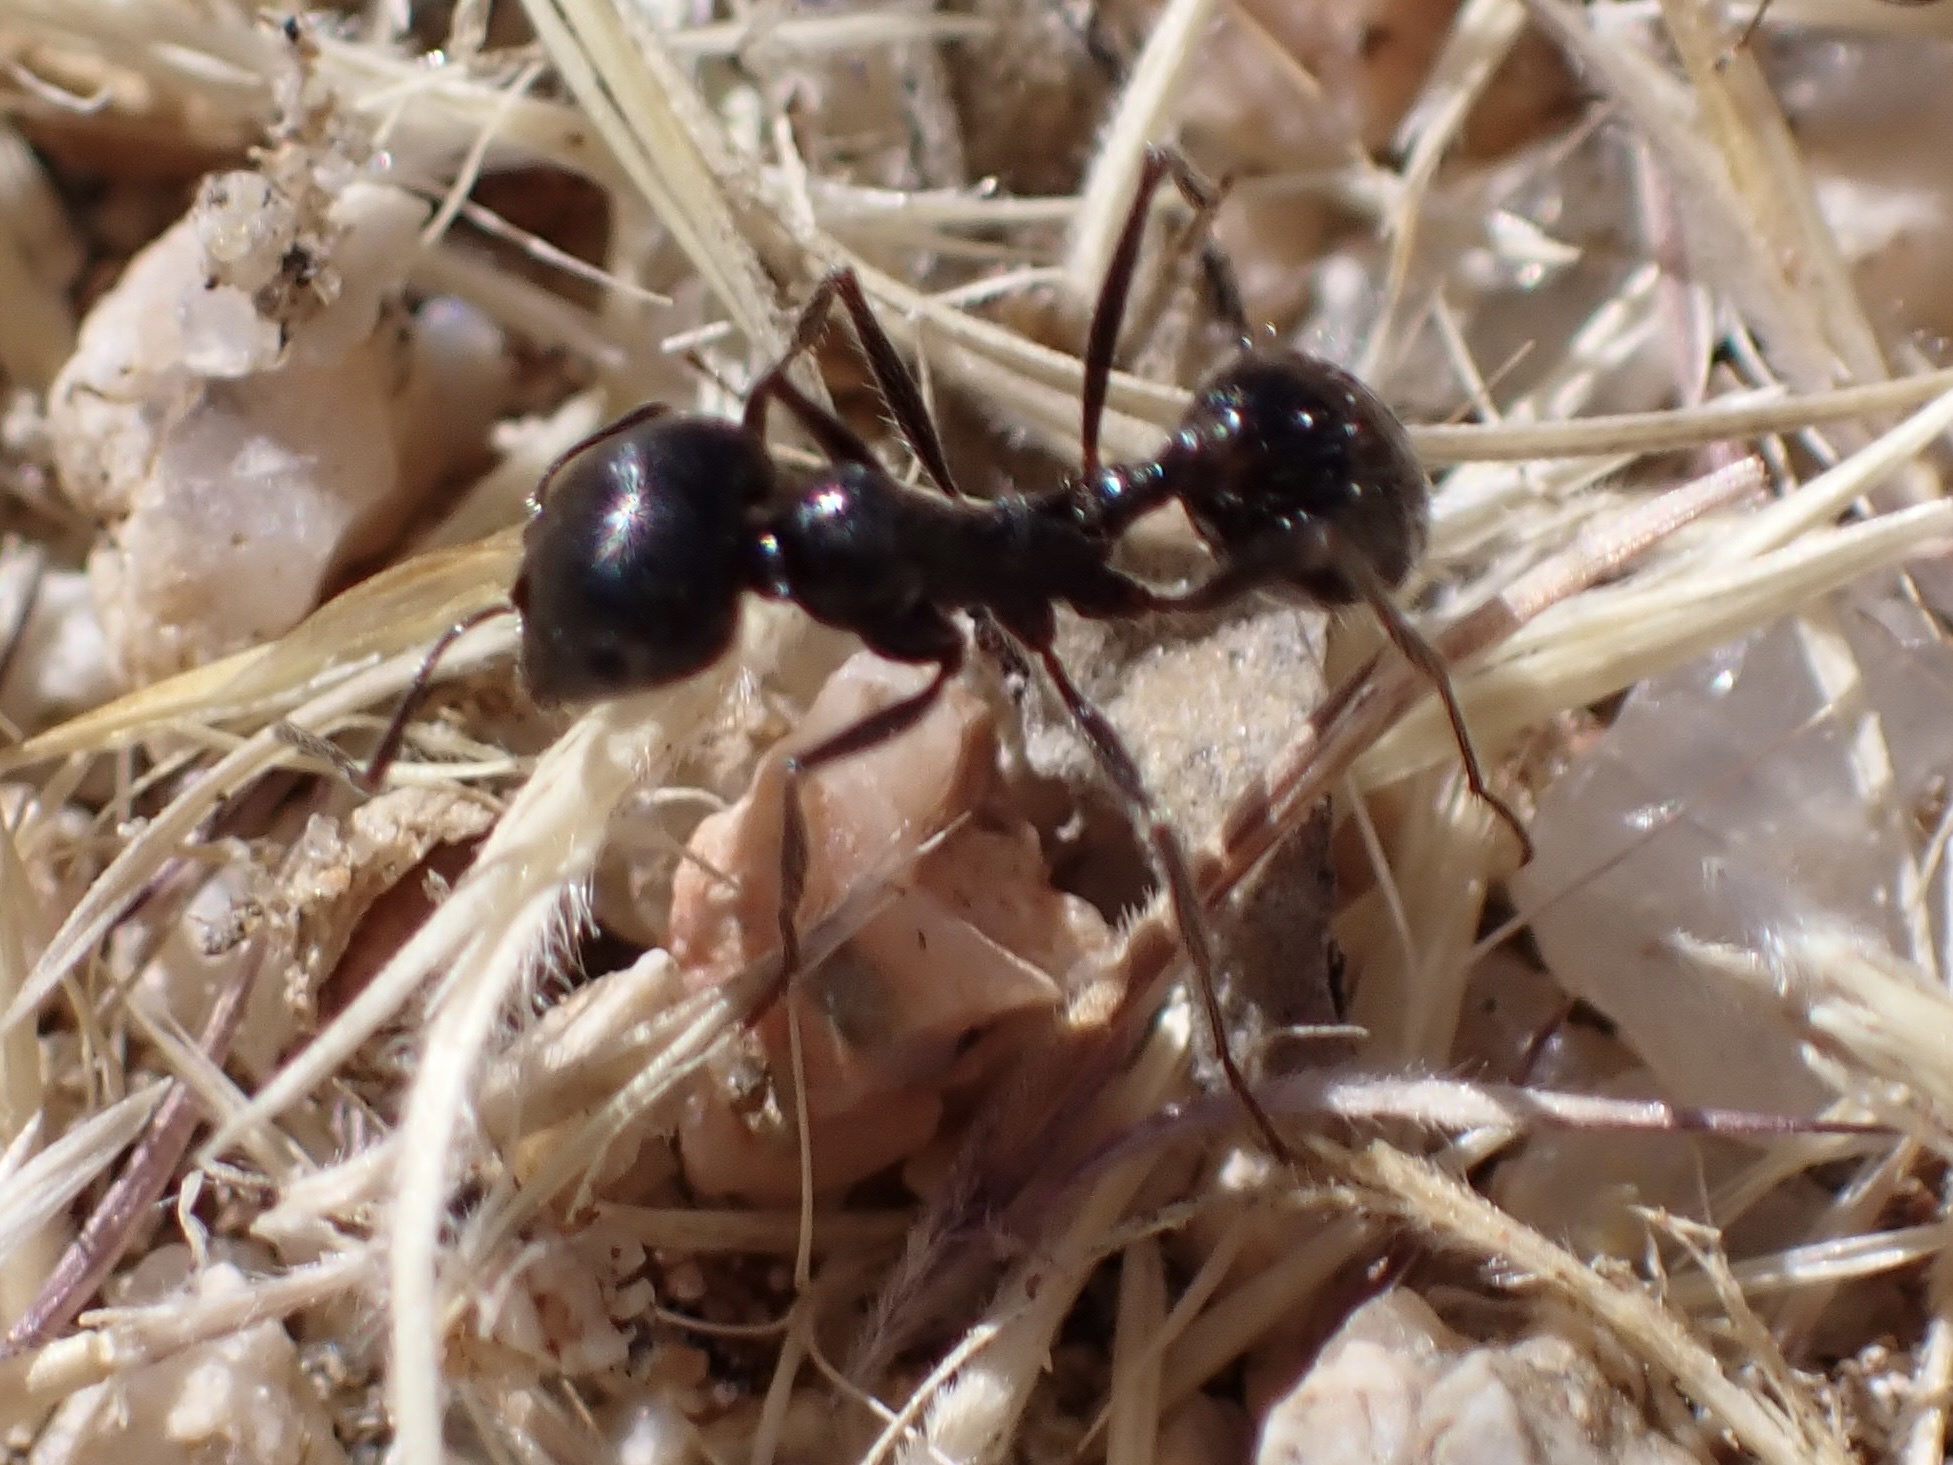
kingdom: Animalia
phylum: Arthropoda
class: Insecta
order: Hymenoptera
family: Formicidae
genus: Messor
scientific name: Messor pergandei
